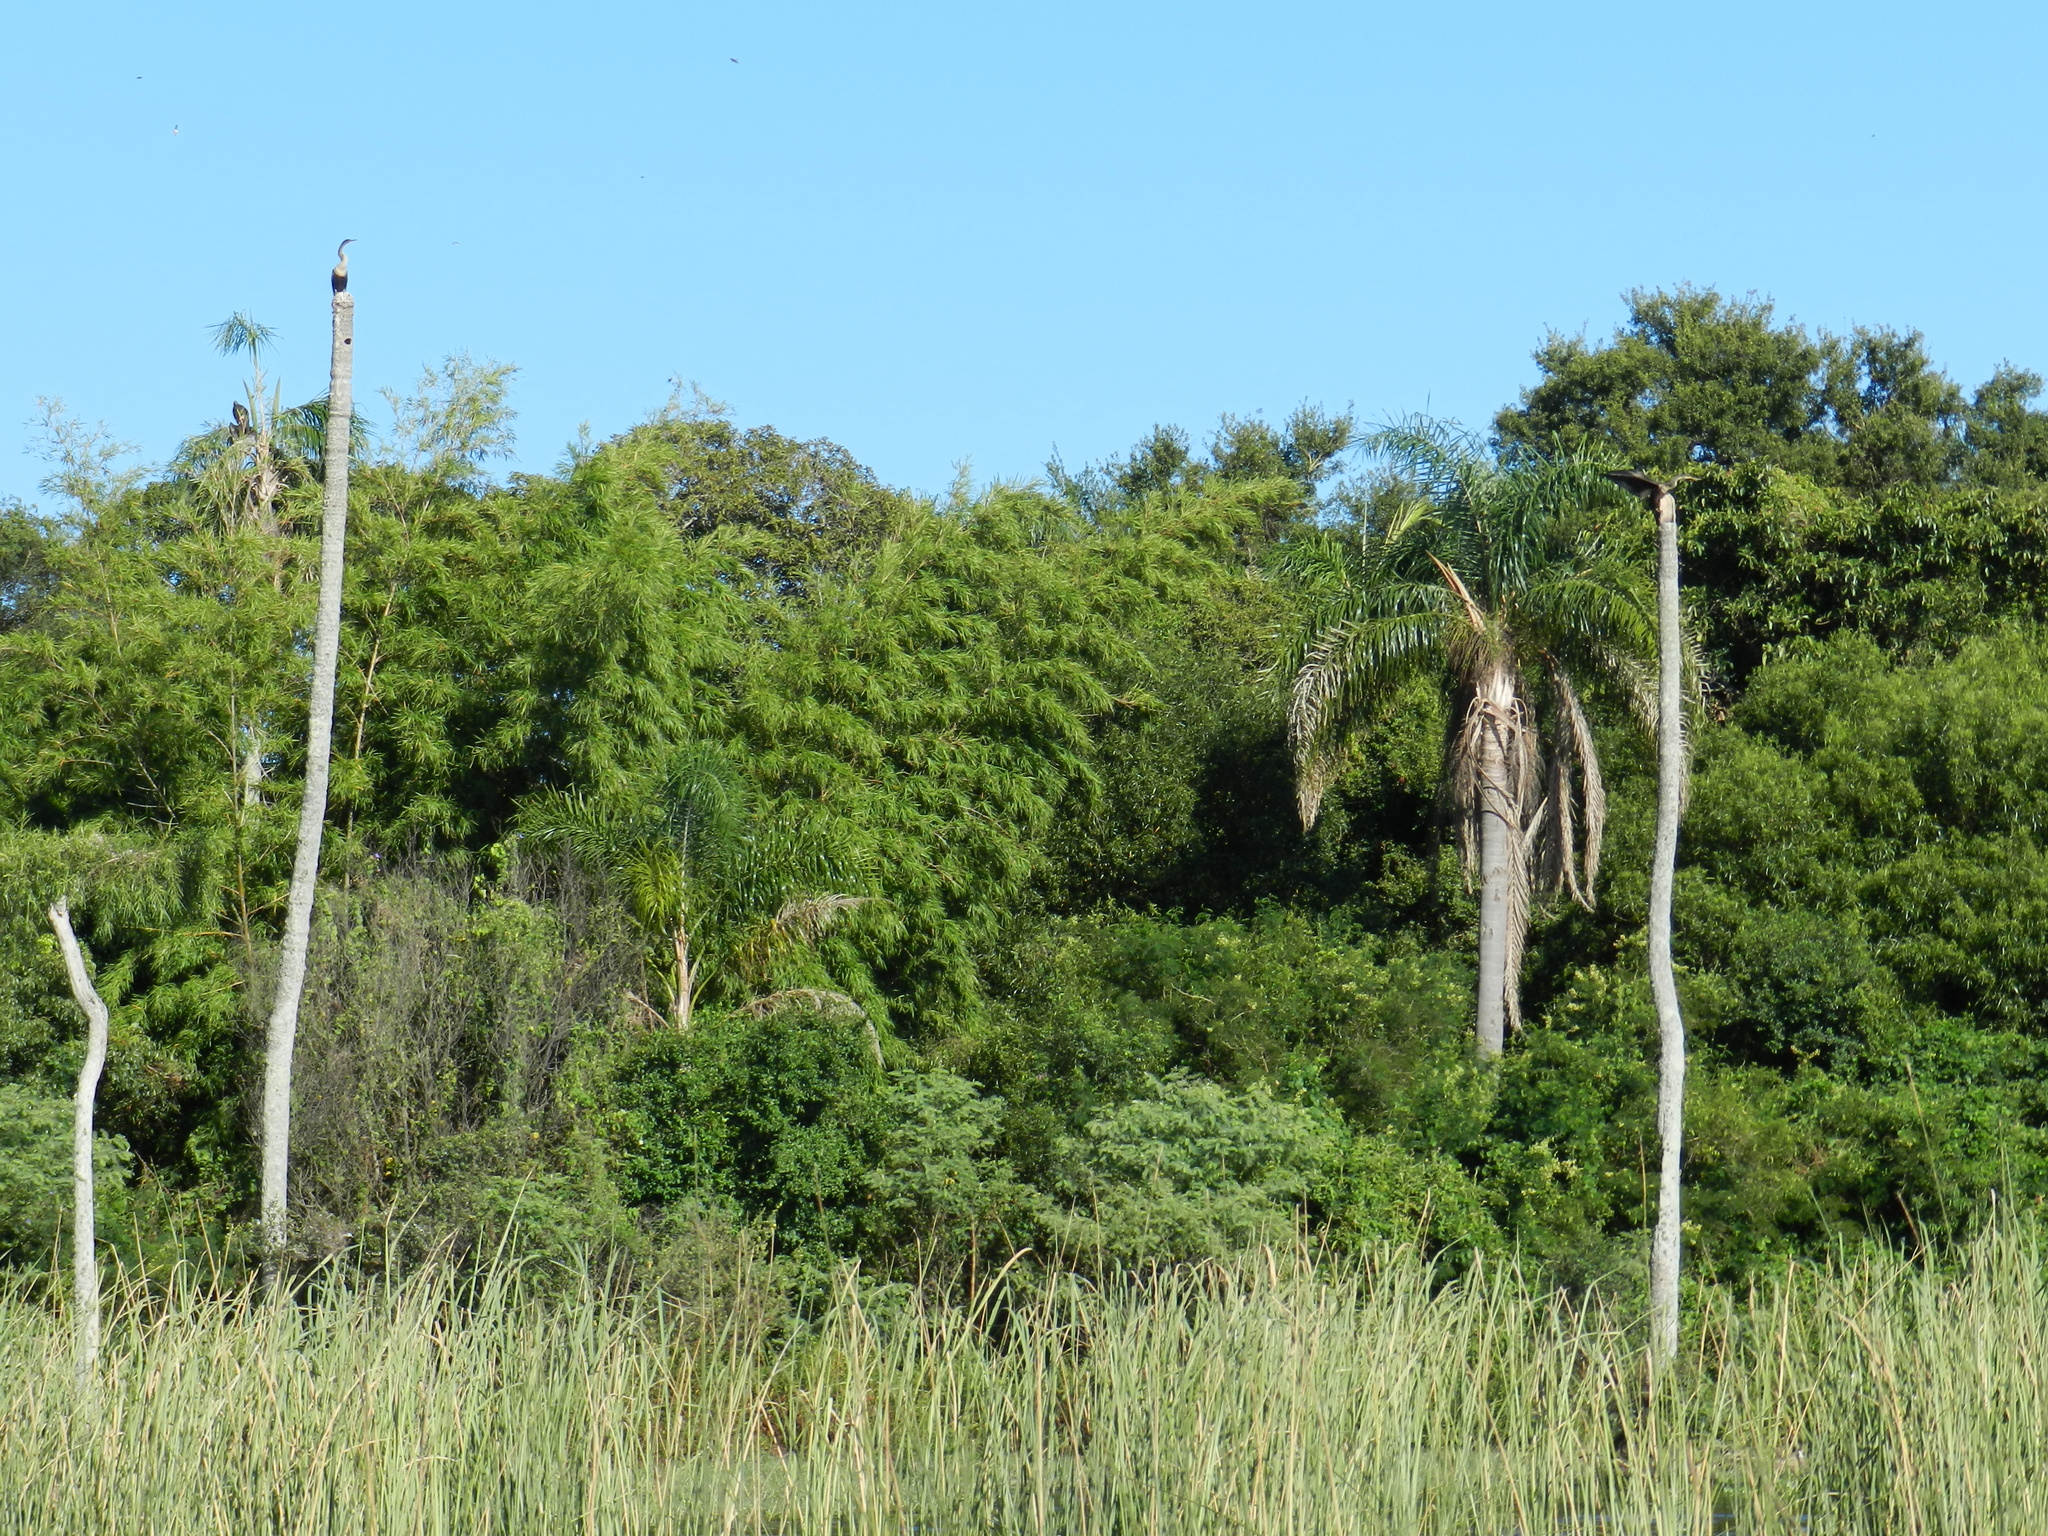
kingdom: Animalia
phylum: Chordata
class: Aves
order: Suliformes
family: Anhingidae
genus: Anhinga
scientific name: Anhinga anhinga
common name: Anhinga
